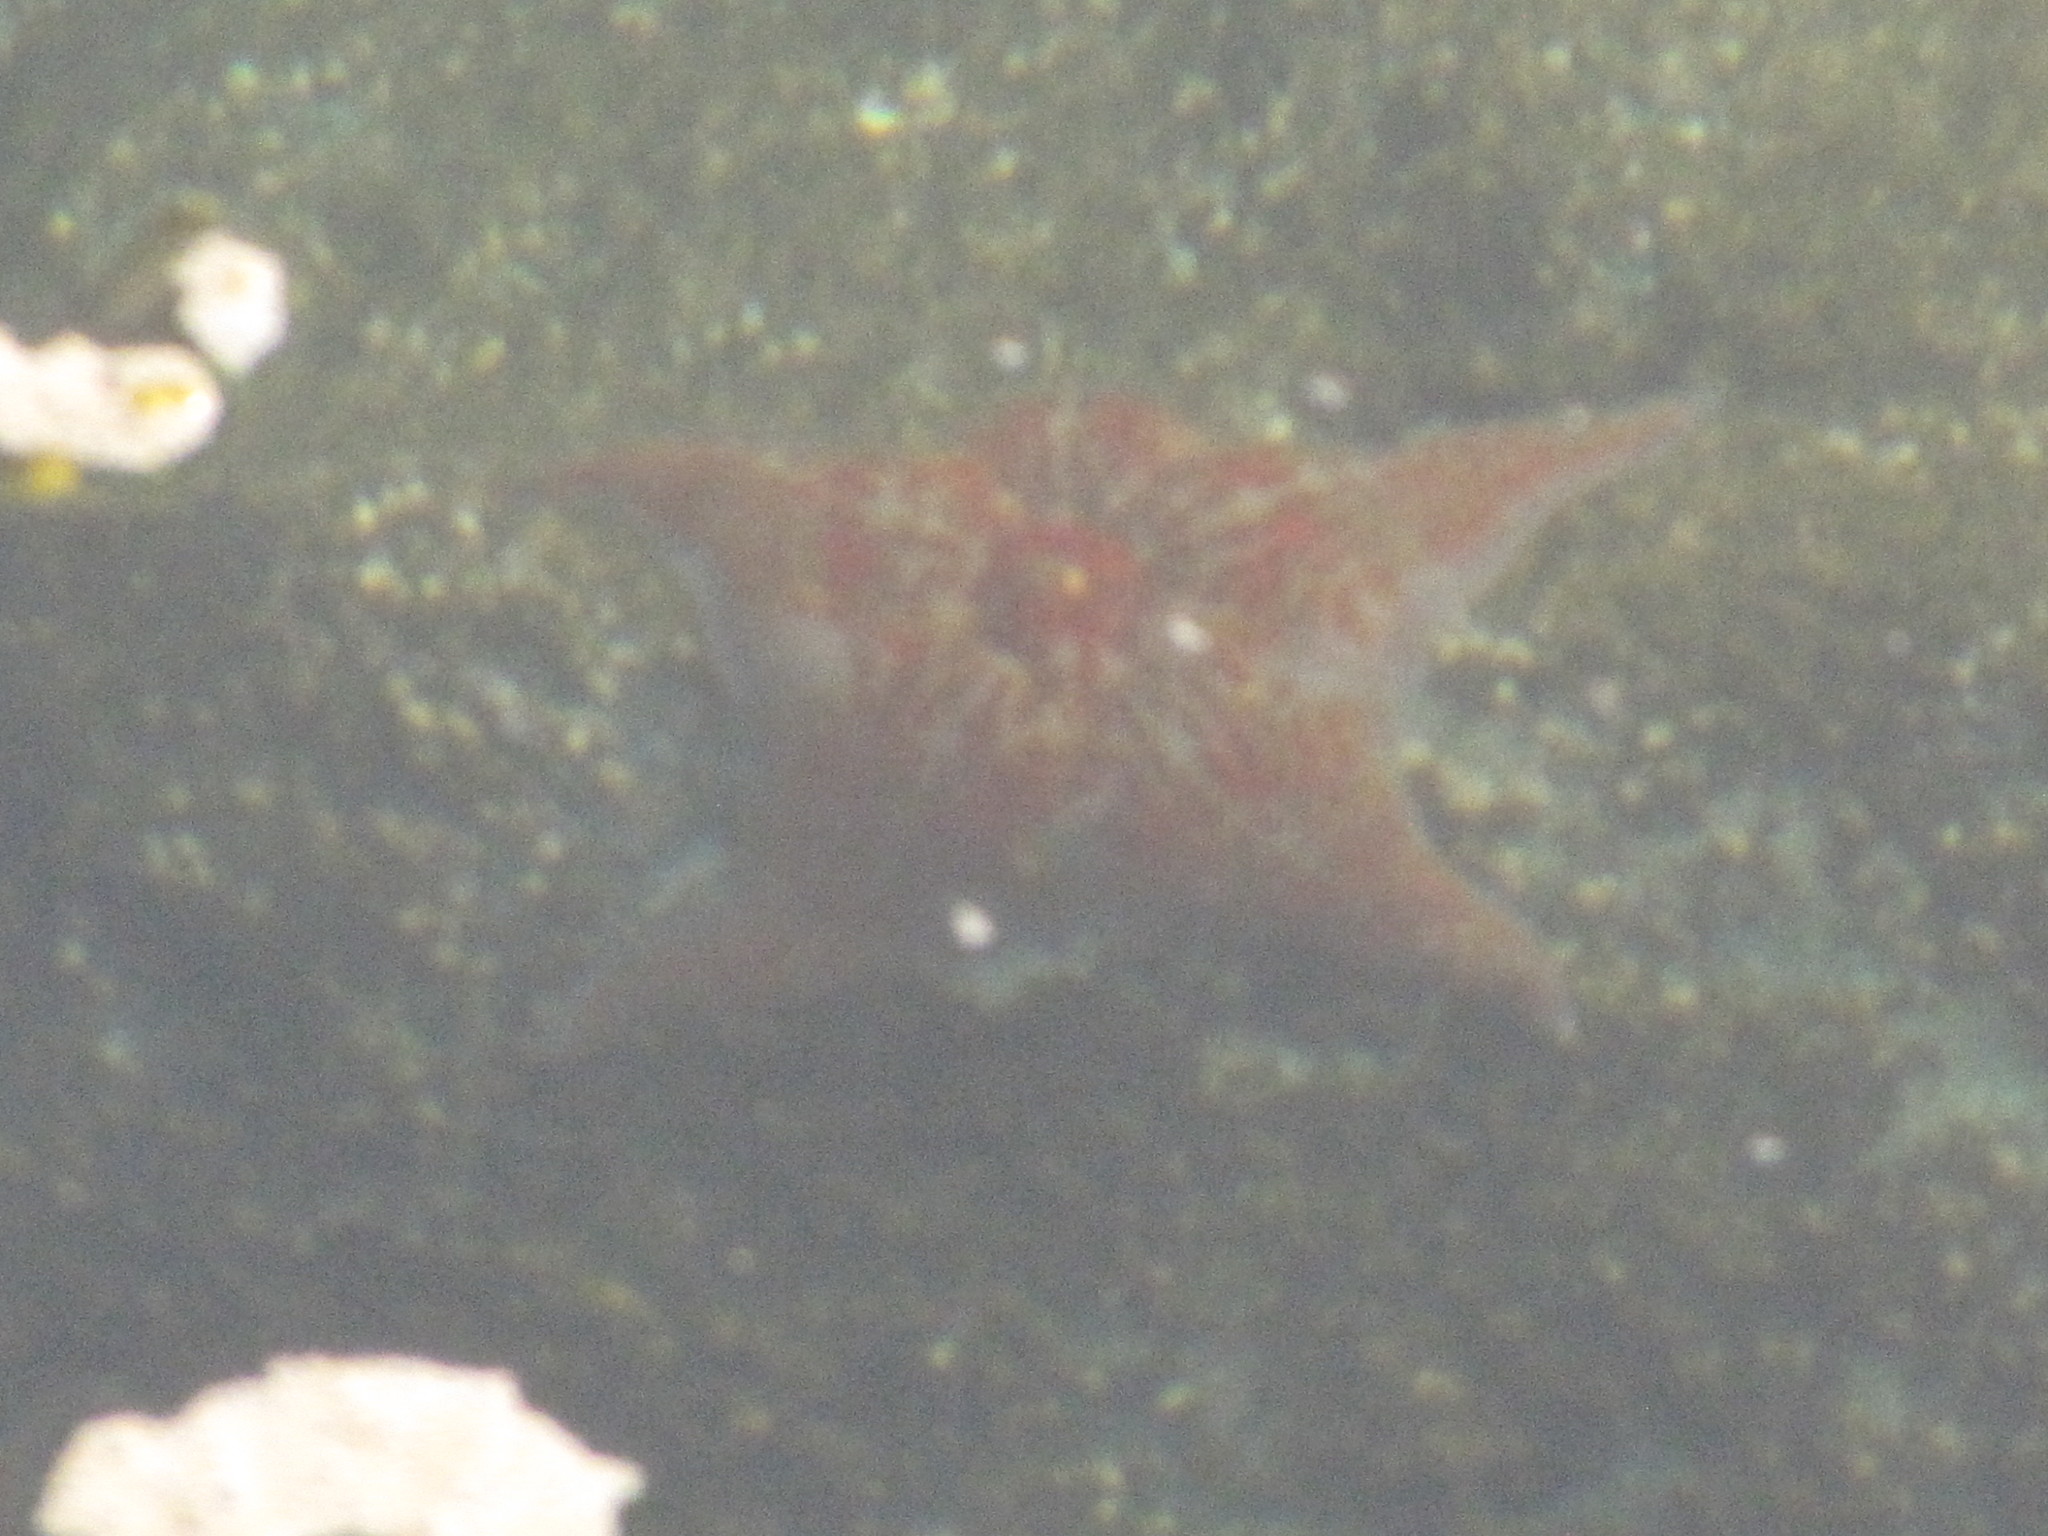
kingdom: Animalia
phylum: Echinodermata
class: Asteroidea
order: Valvatida
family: Asteropseidae
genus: Dermasterias
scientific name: Dermasterias imbricata
